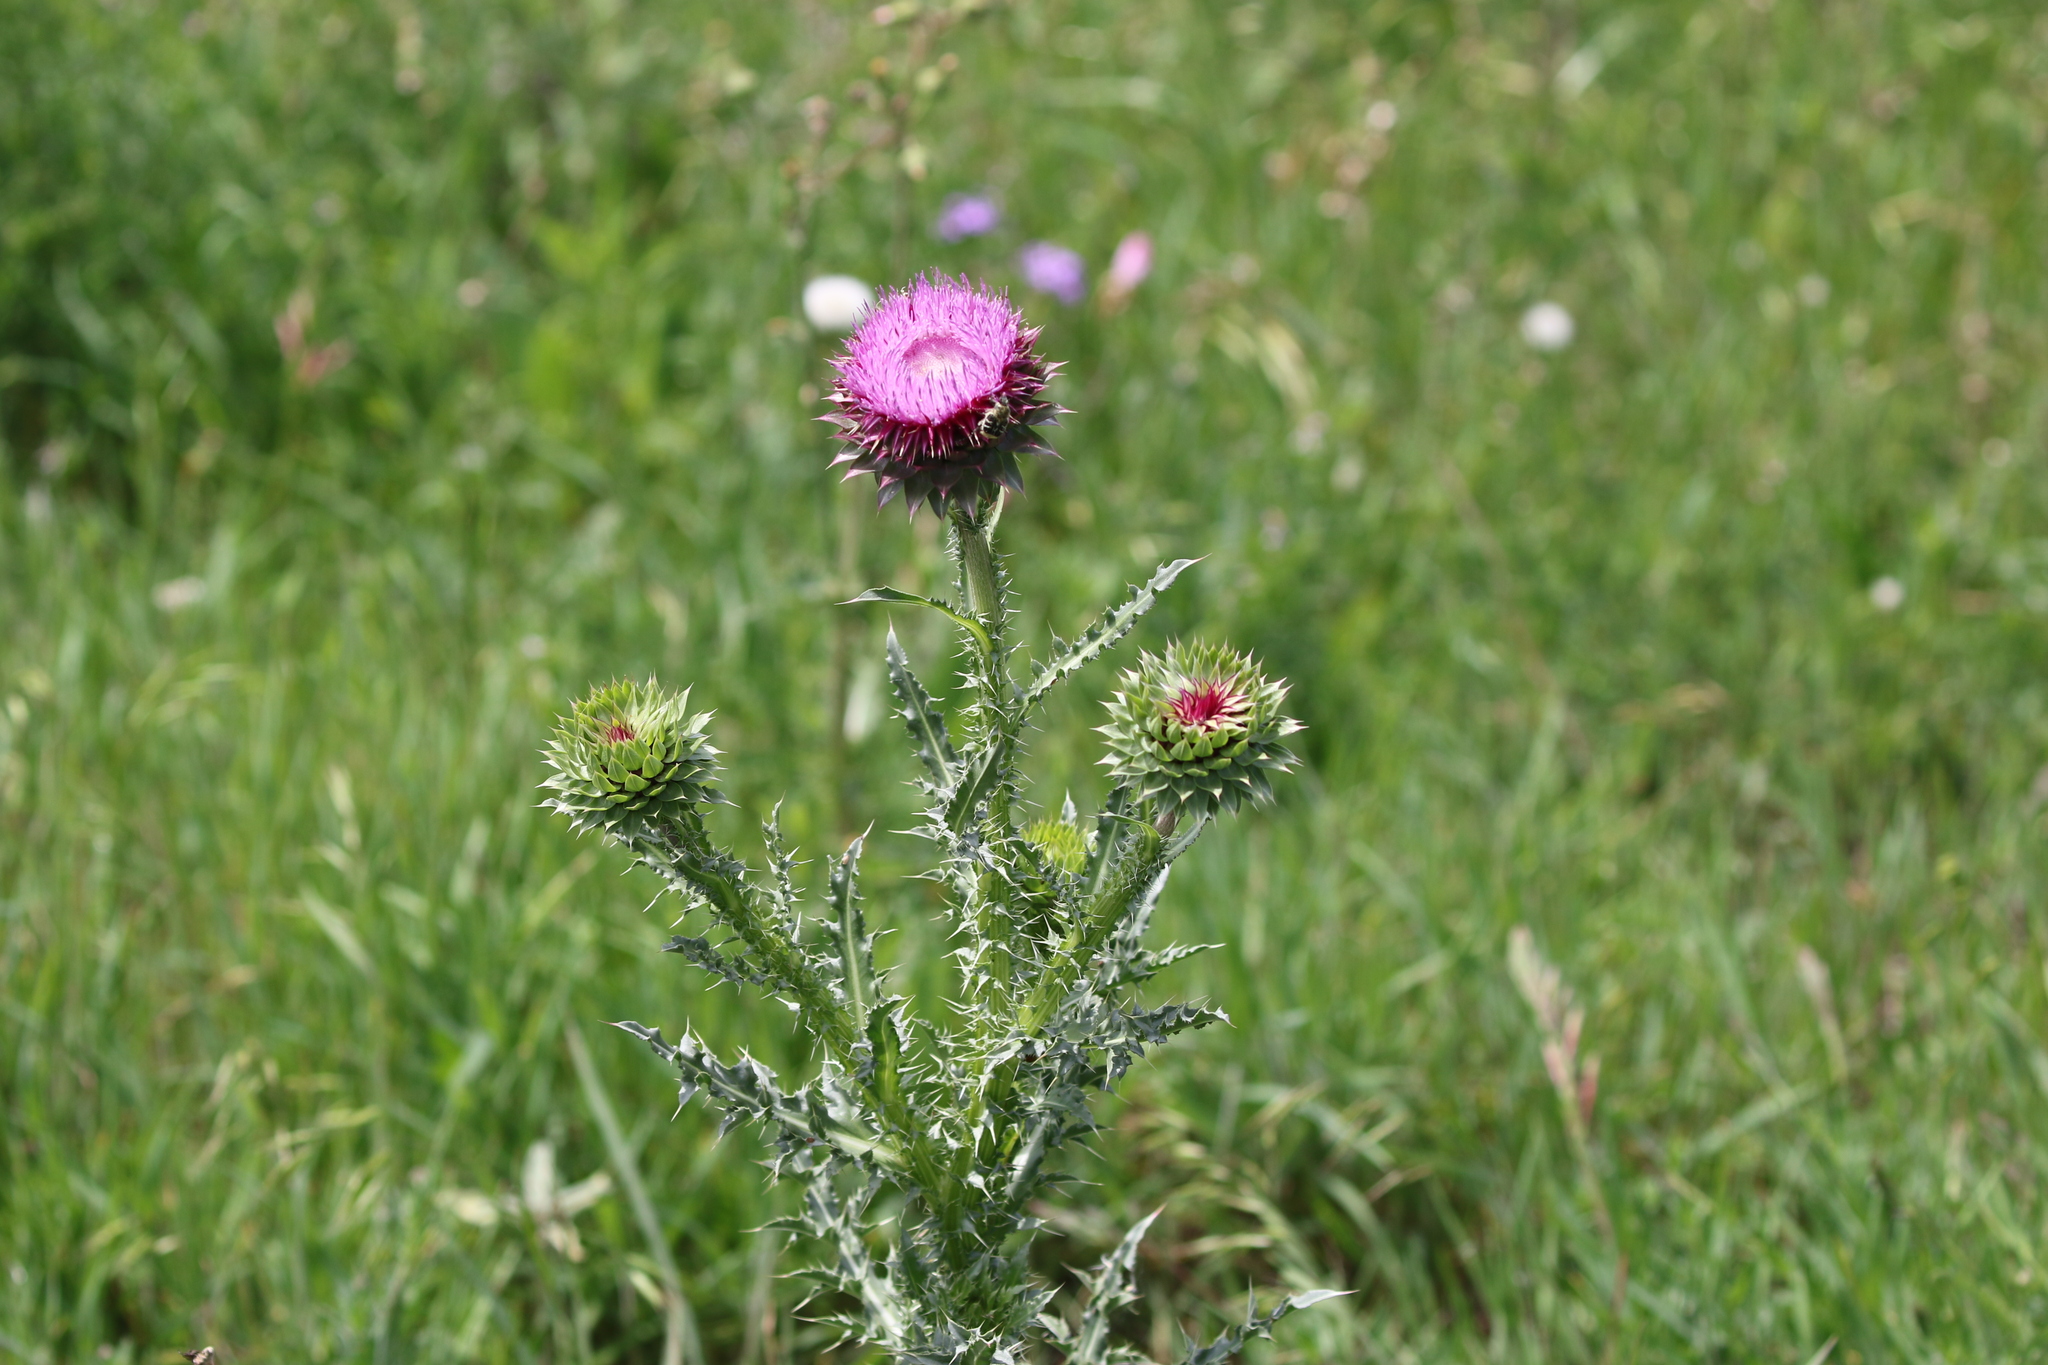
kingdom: Plantae
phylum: Tracheophyta
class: Magnoliopsida
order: Asterales
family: Asteraceae
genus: Carduus
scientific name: Carduus nutans
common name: Musk thistle
